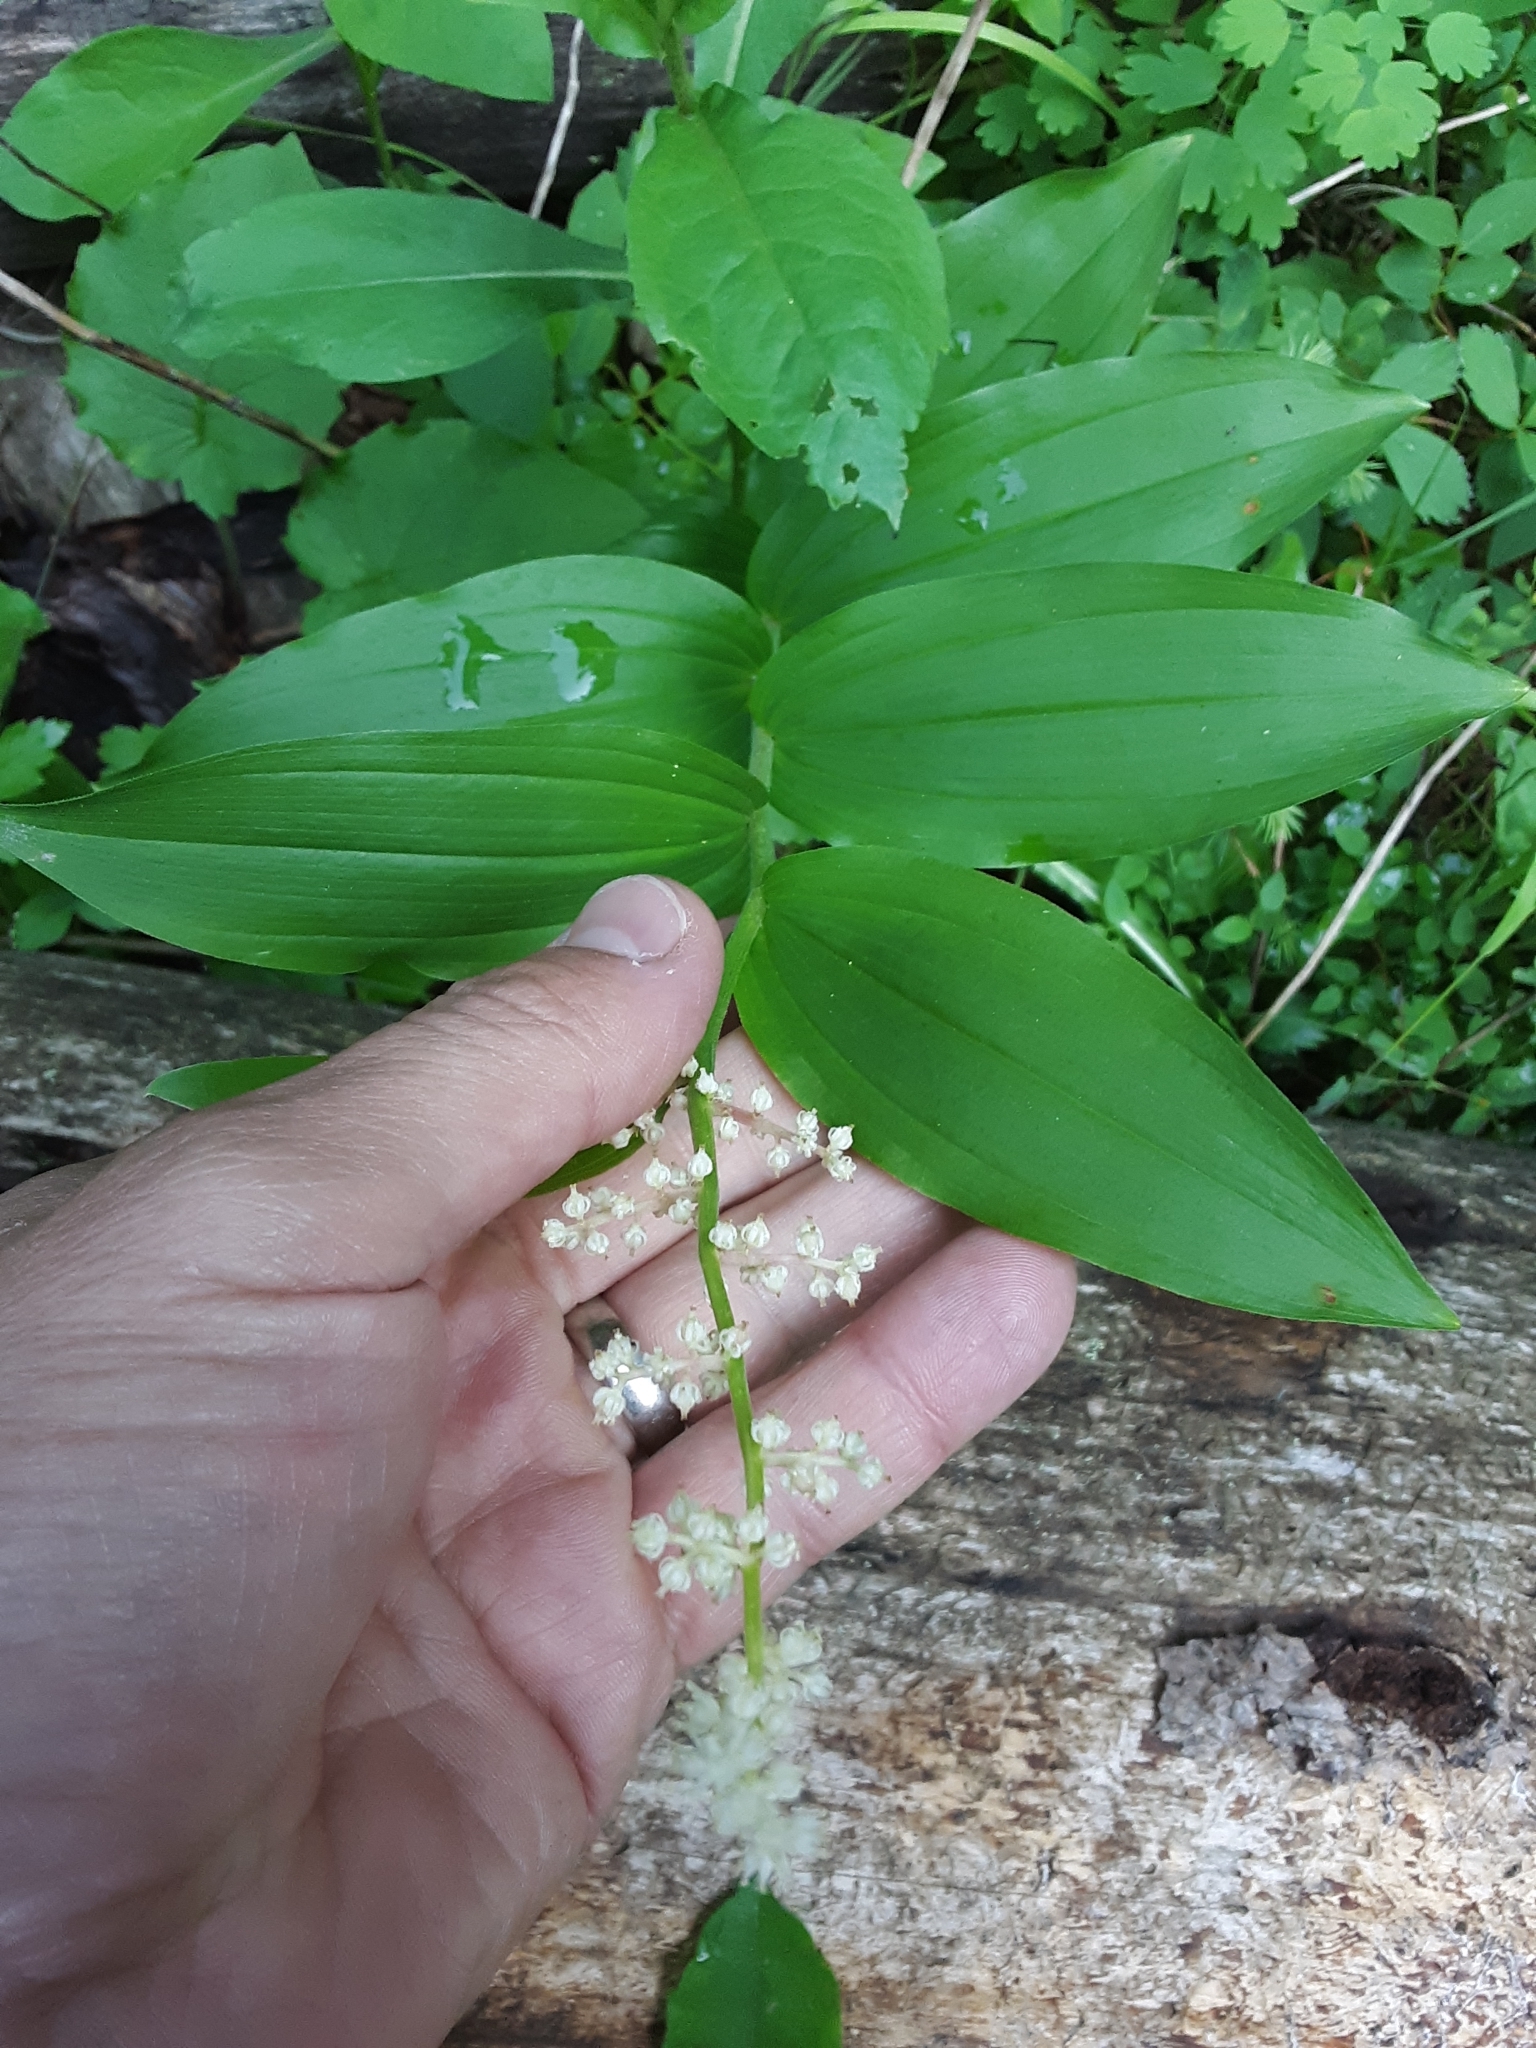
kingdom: Plantae
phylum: Tracheophyta
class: Liliopsida
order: Asparagales
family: Asparagaceae
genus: Maianthemum
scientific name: Maianthemum racemosum
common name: False spikenard
